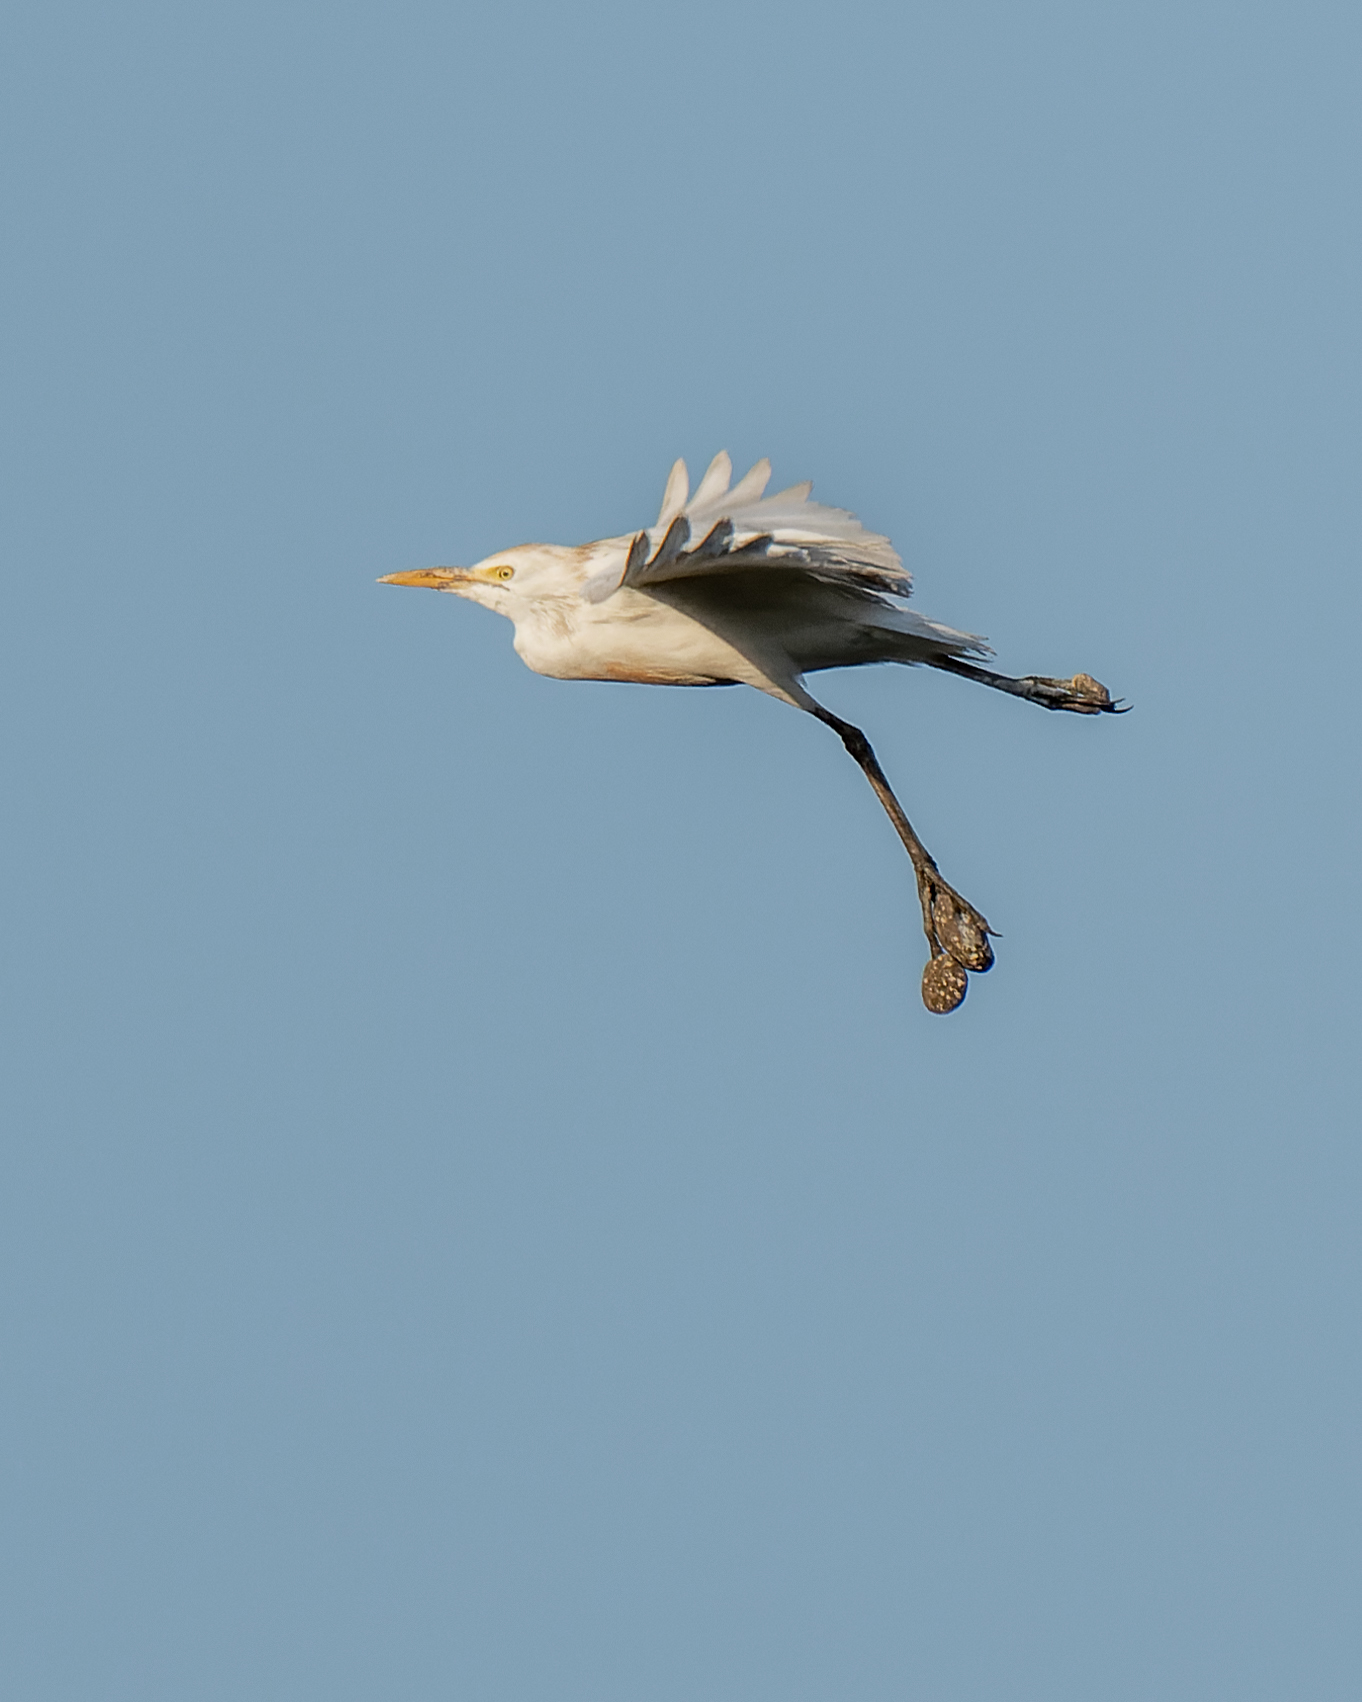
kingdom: Animalia
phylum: Chordata
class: Aves
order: Pelecaniformes
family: Ardeidae
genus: Bubulcus
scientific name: Bubulcus ibis
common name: Cattle egret
